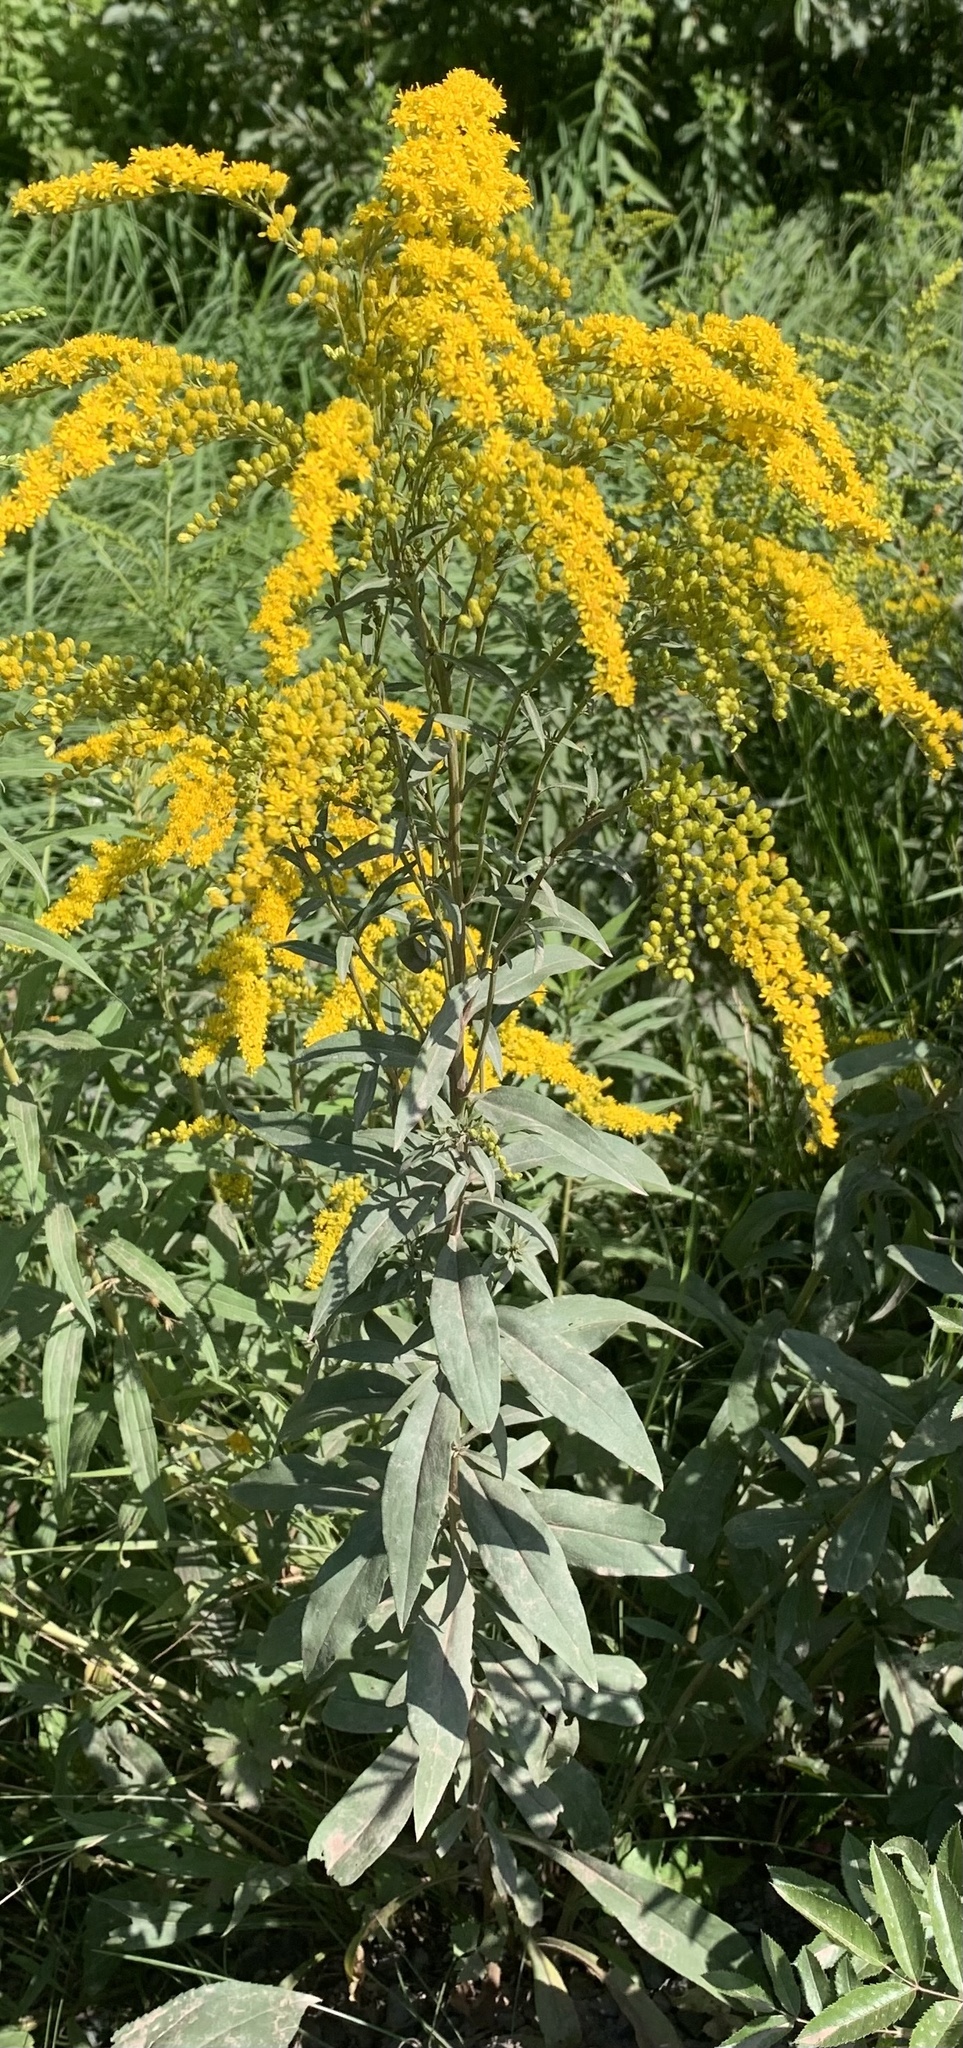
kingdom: Plantae
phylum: Tracheophyta
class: Magnoliopsida
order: Asterales
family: Asteraceae
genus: Solidago
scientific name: Solidago canadensis
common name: Canada goldenrod
